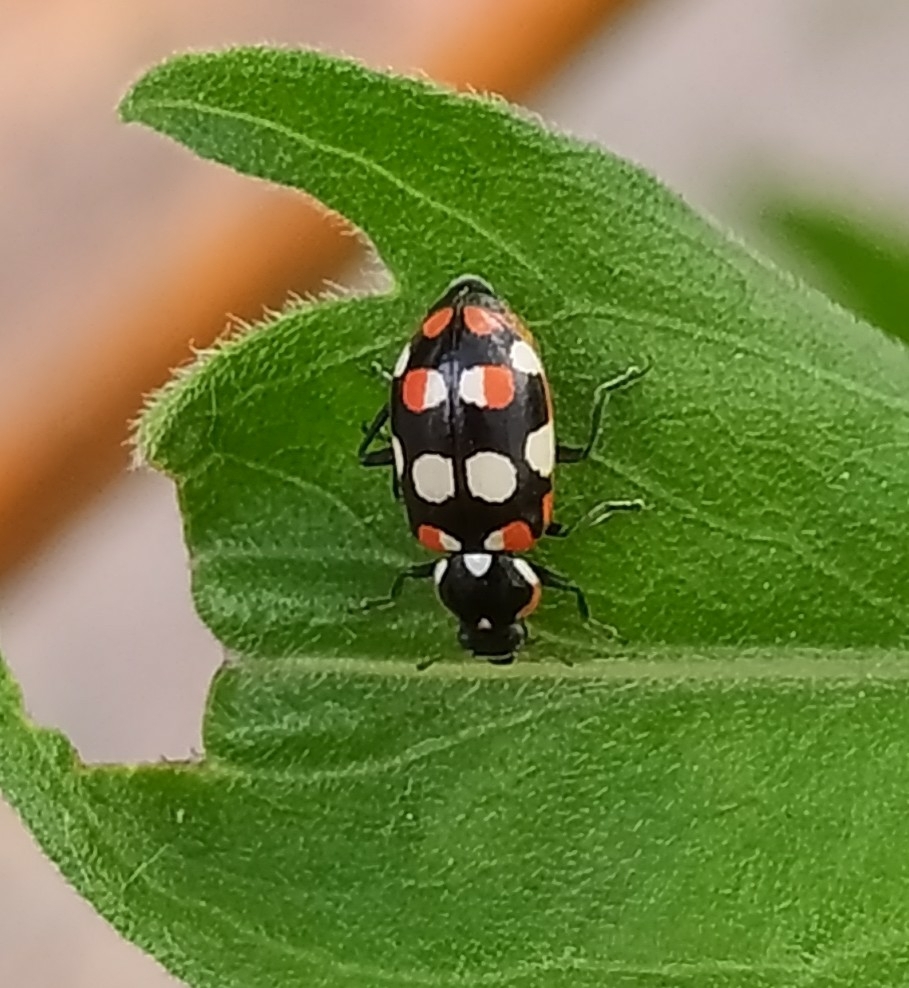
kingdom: Animalia
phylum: Arthropoda
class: Insecta
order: Coleoptera
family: Coccinellidae
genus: Eriopis
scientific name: Eriopis connexa
